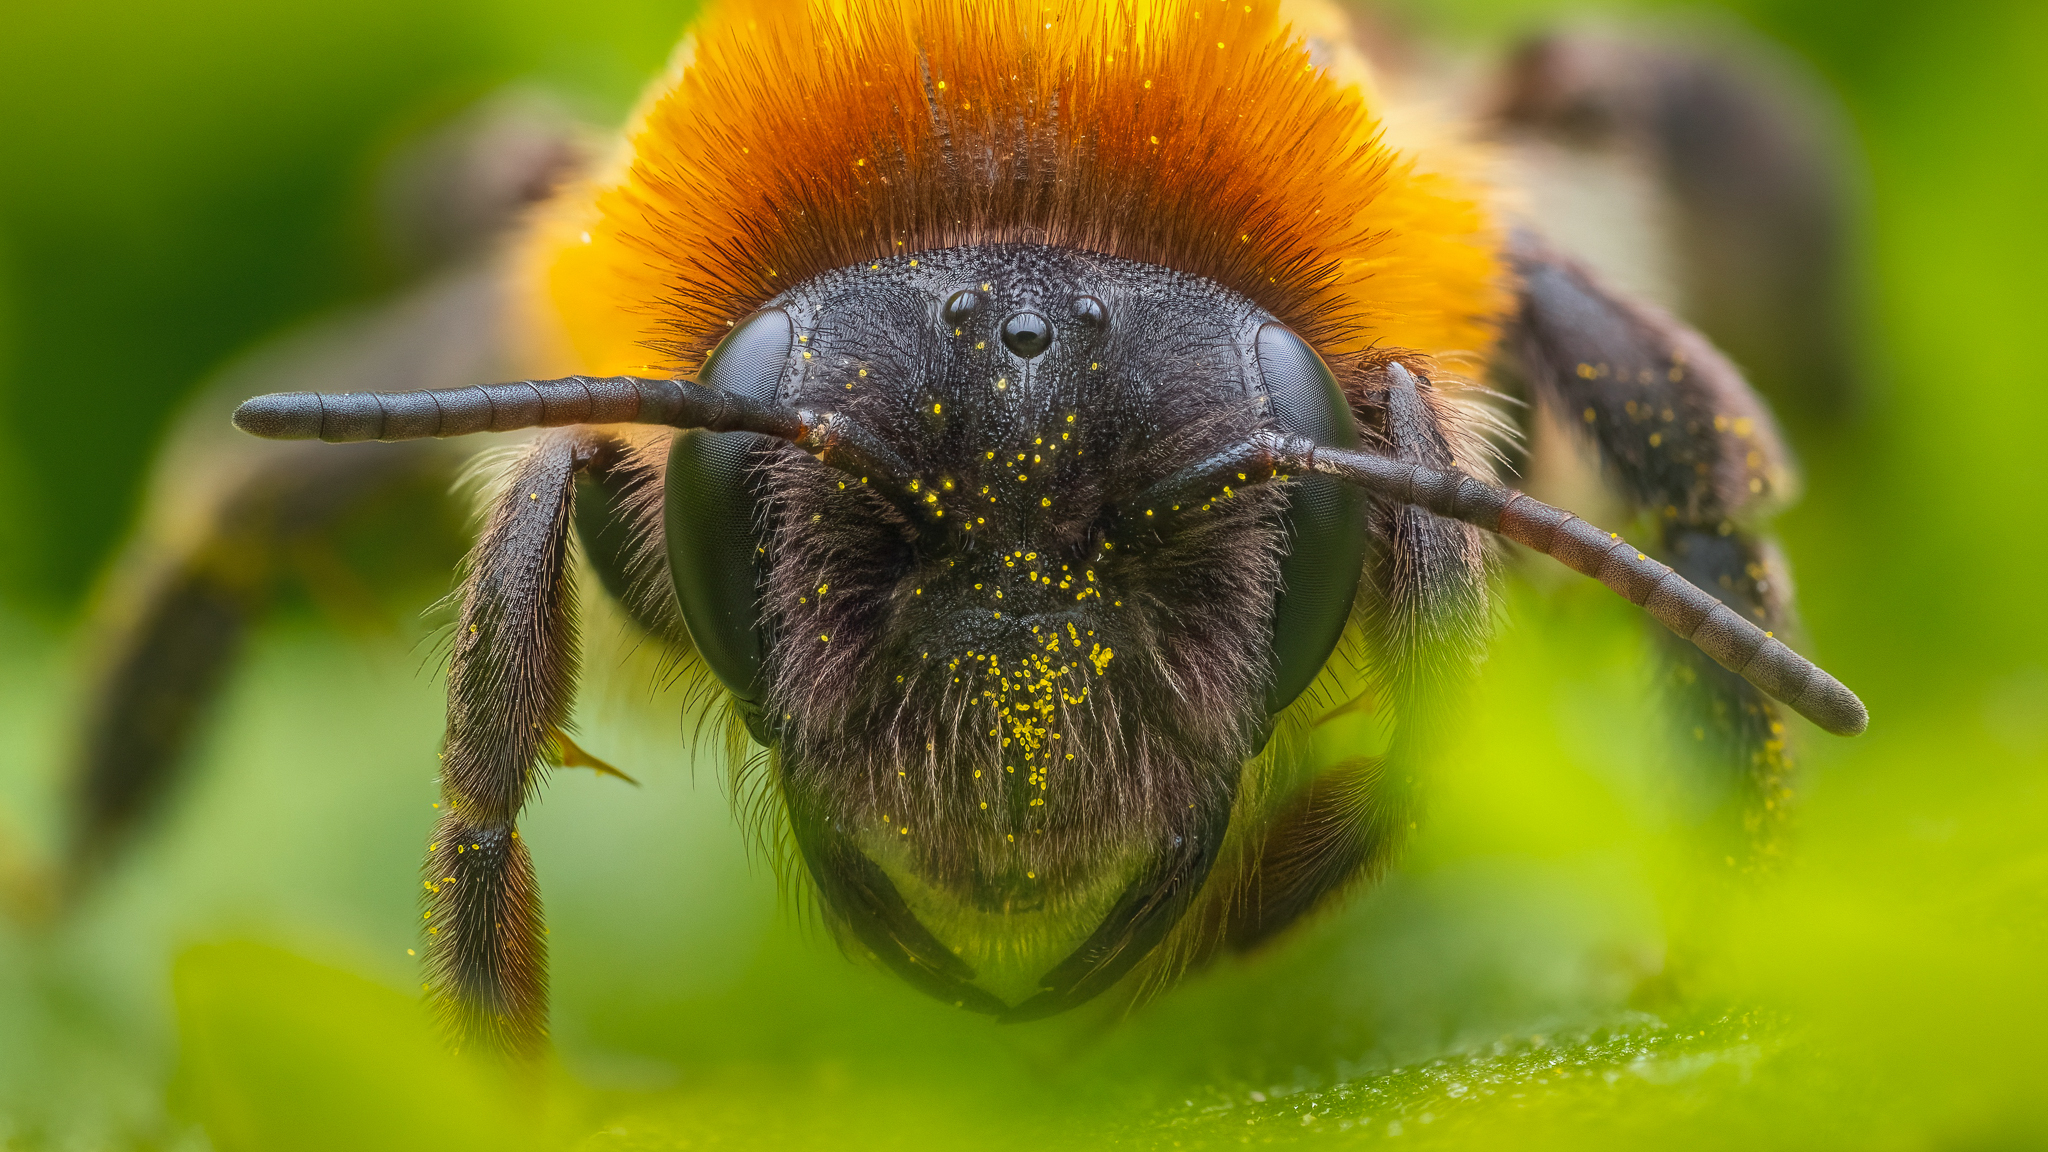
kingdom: Animalia
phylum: Arthropoda
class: Insecta
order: Hymenoptera
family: Andrenidae
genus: Andrena
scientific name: Andrena nitida
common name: Grey-patched mining bee
